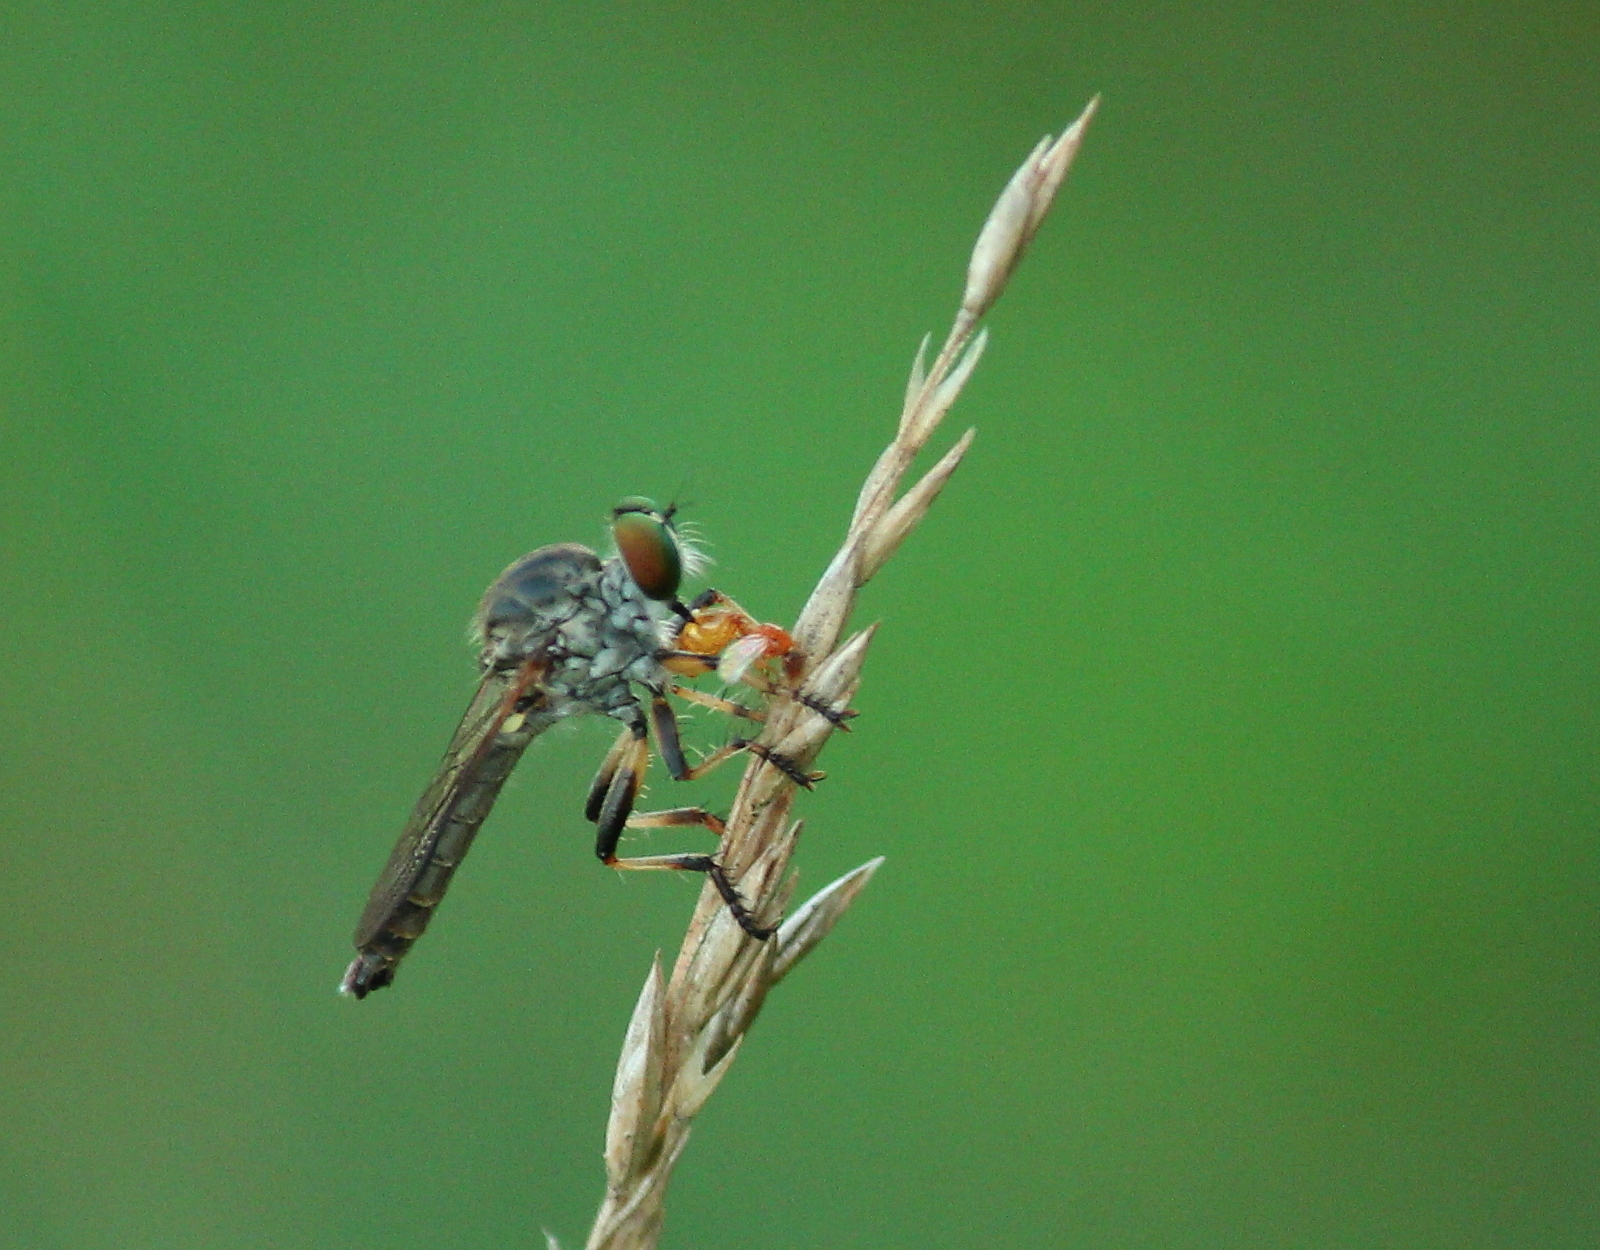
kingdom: Animalia
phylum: Arthropoda
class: Insecta
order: Diptera
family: Asilidae
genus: Ommatius
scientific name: Ommatius ouachitensis
